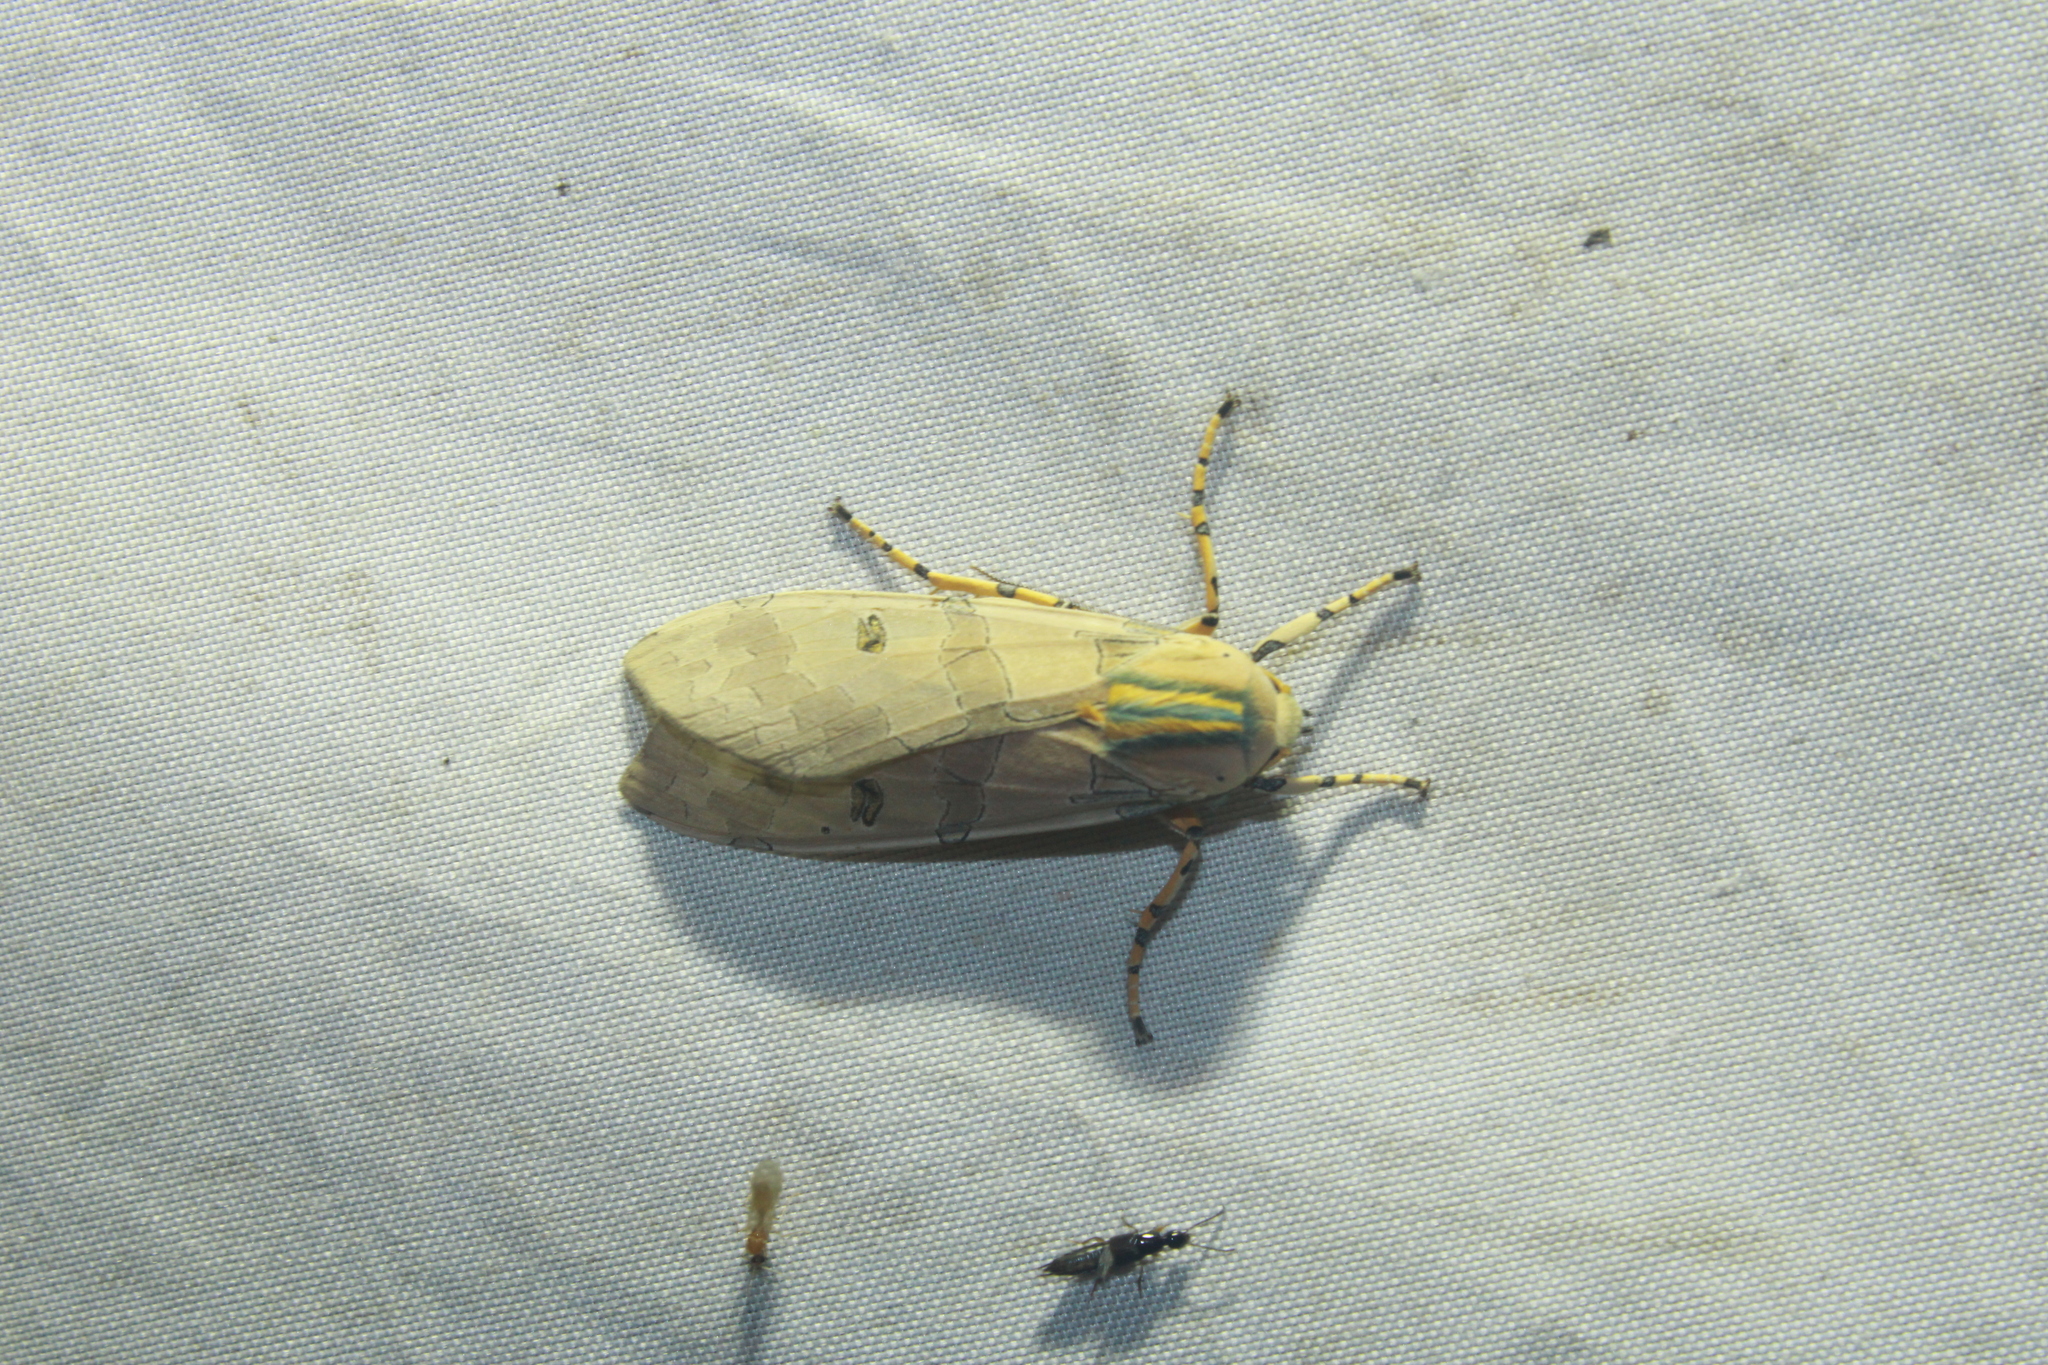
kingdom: Animalia
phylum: Arthropoda
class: Insecta
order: Lepidoptera
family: Erebidae
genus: Halysidota
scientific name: Halysidota cinctipes
